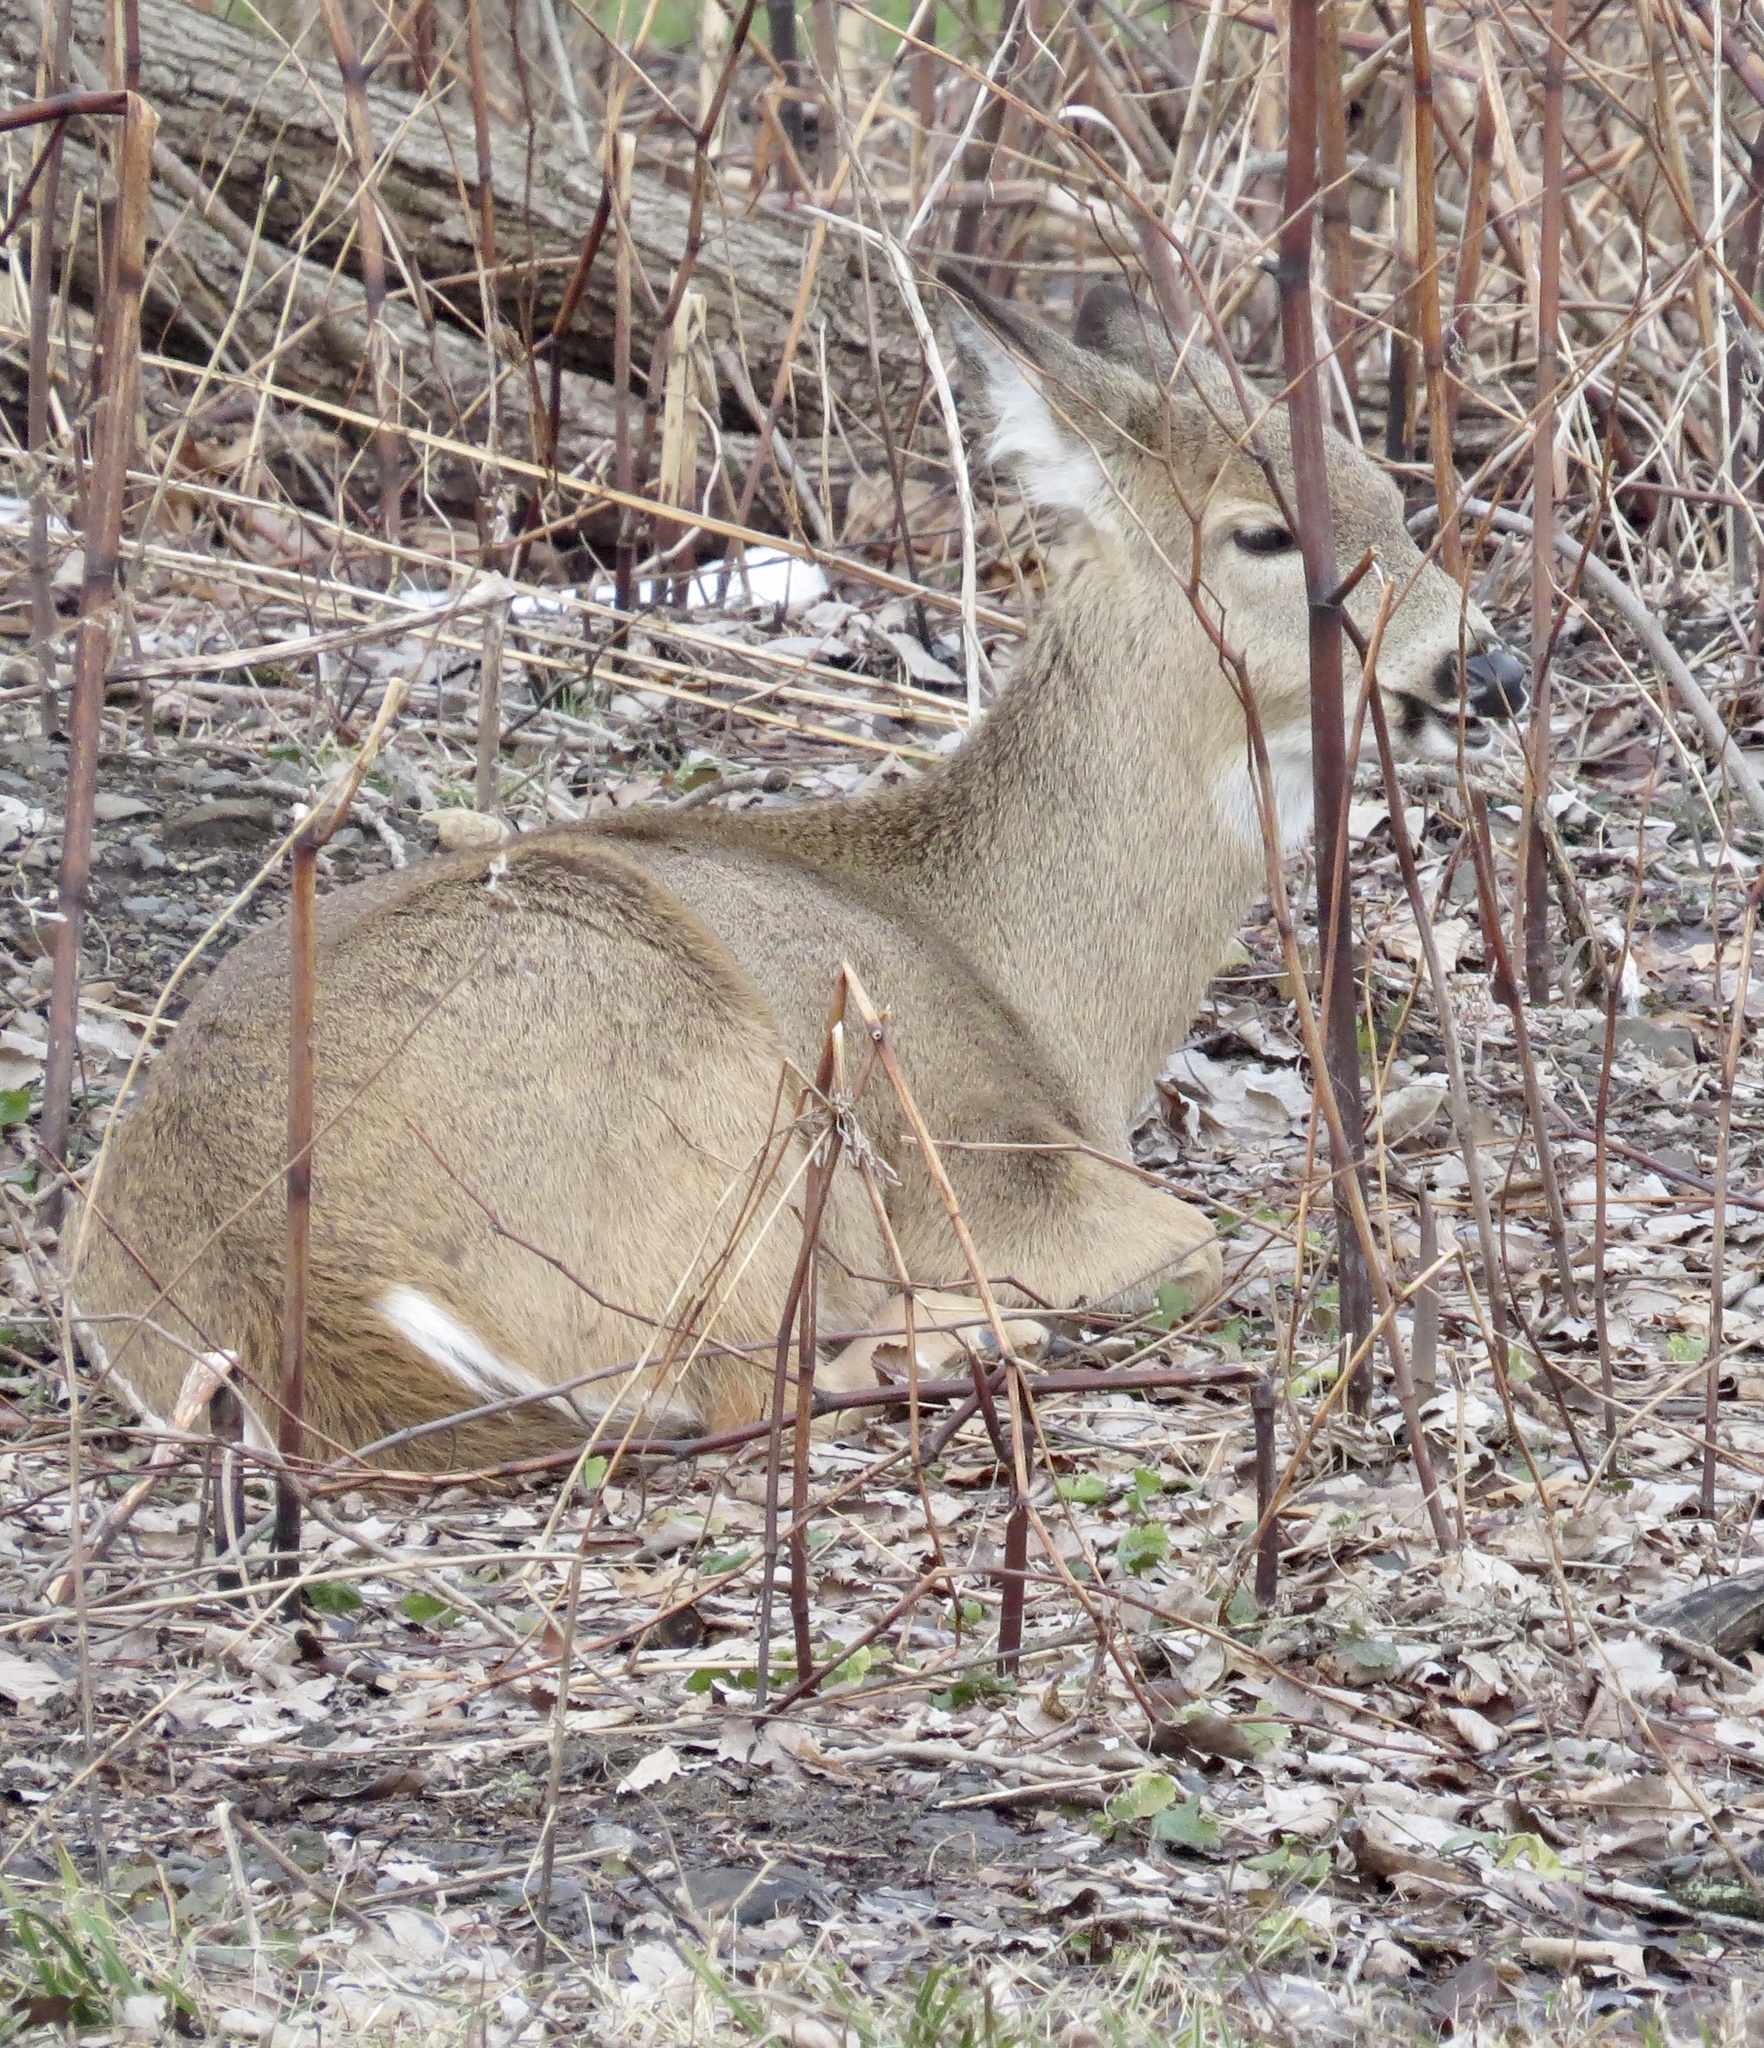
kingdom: Animalia
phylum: Chordata
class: Mammalia
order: Artiodactyla
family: Cervidae
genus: Odocoileus
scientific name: Odocoileus virginianus
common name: White-tailed deer
